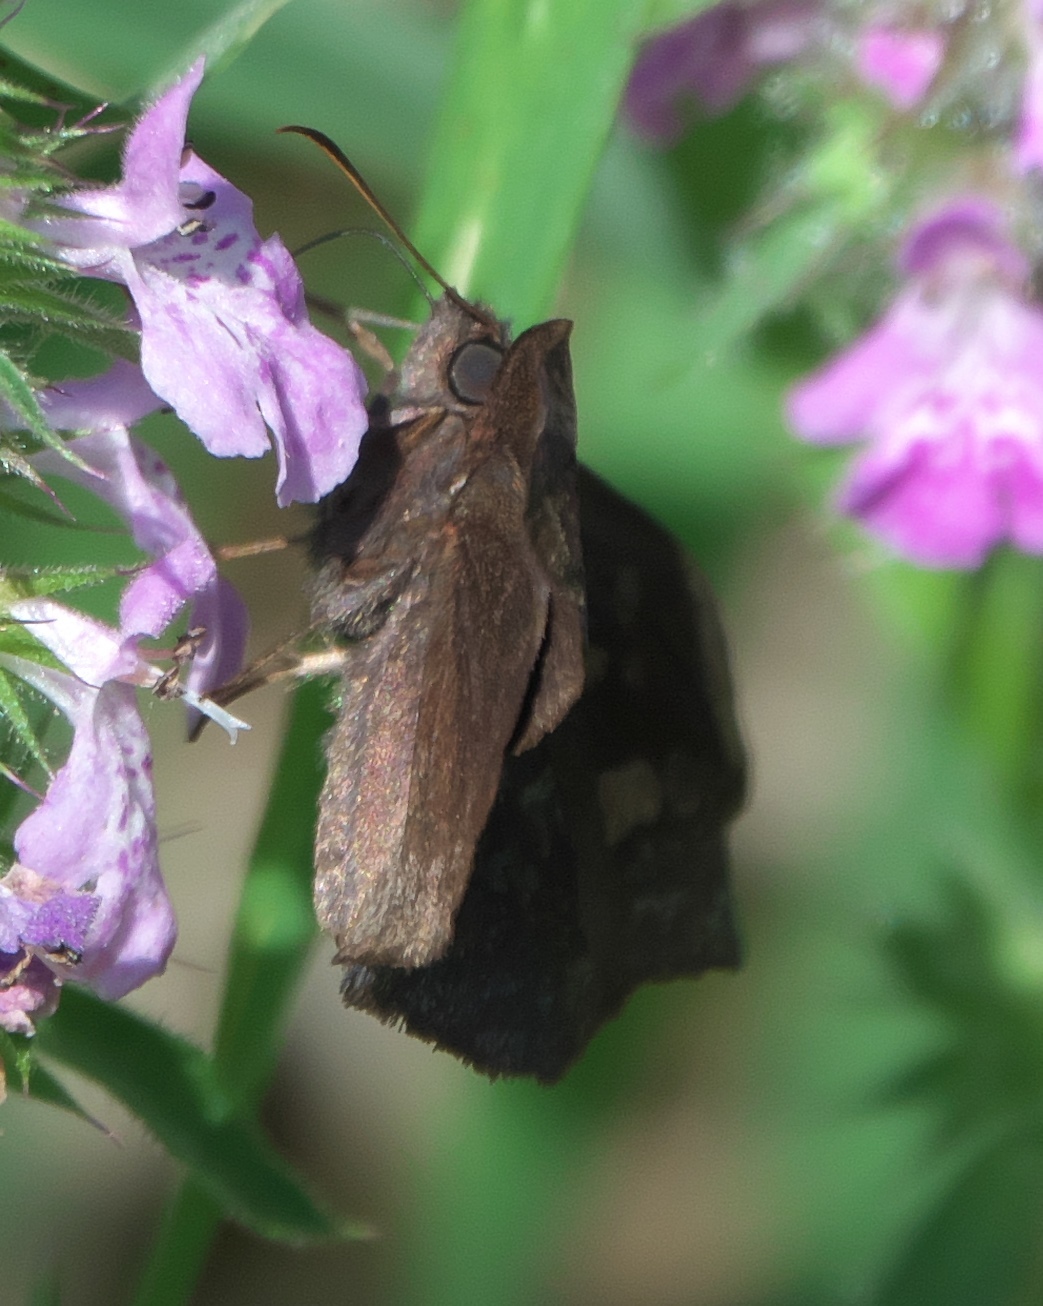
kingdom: Animalia
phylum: Arthropoda
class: Insecta
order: Lepidoptera
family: Hesperiidae
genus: Achlyodes
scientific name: Achlyodes thraso
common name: Sickle-winged skipper
